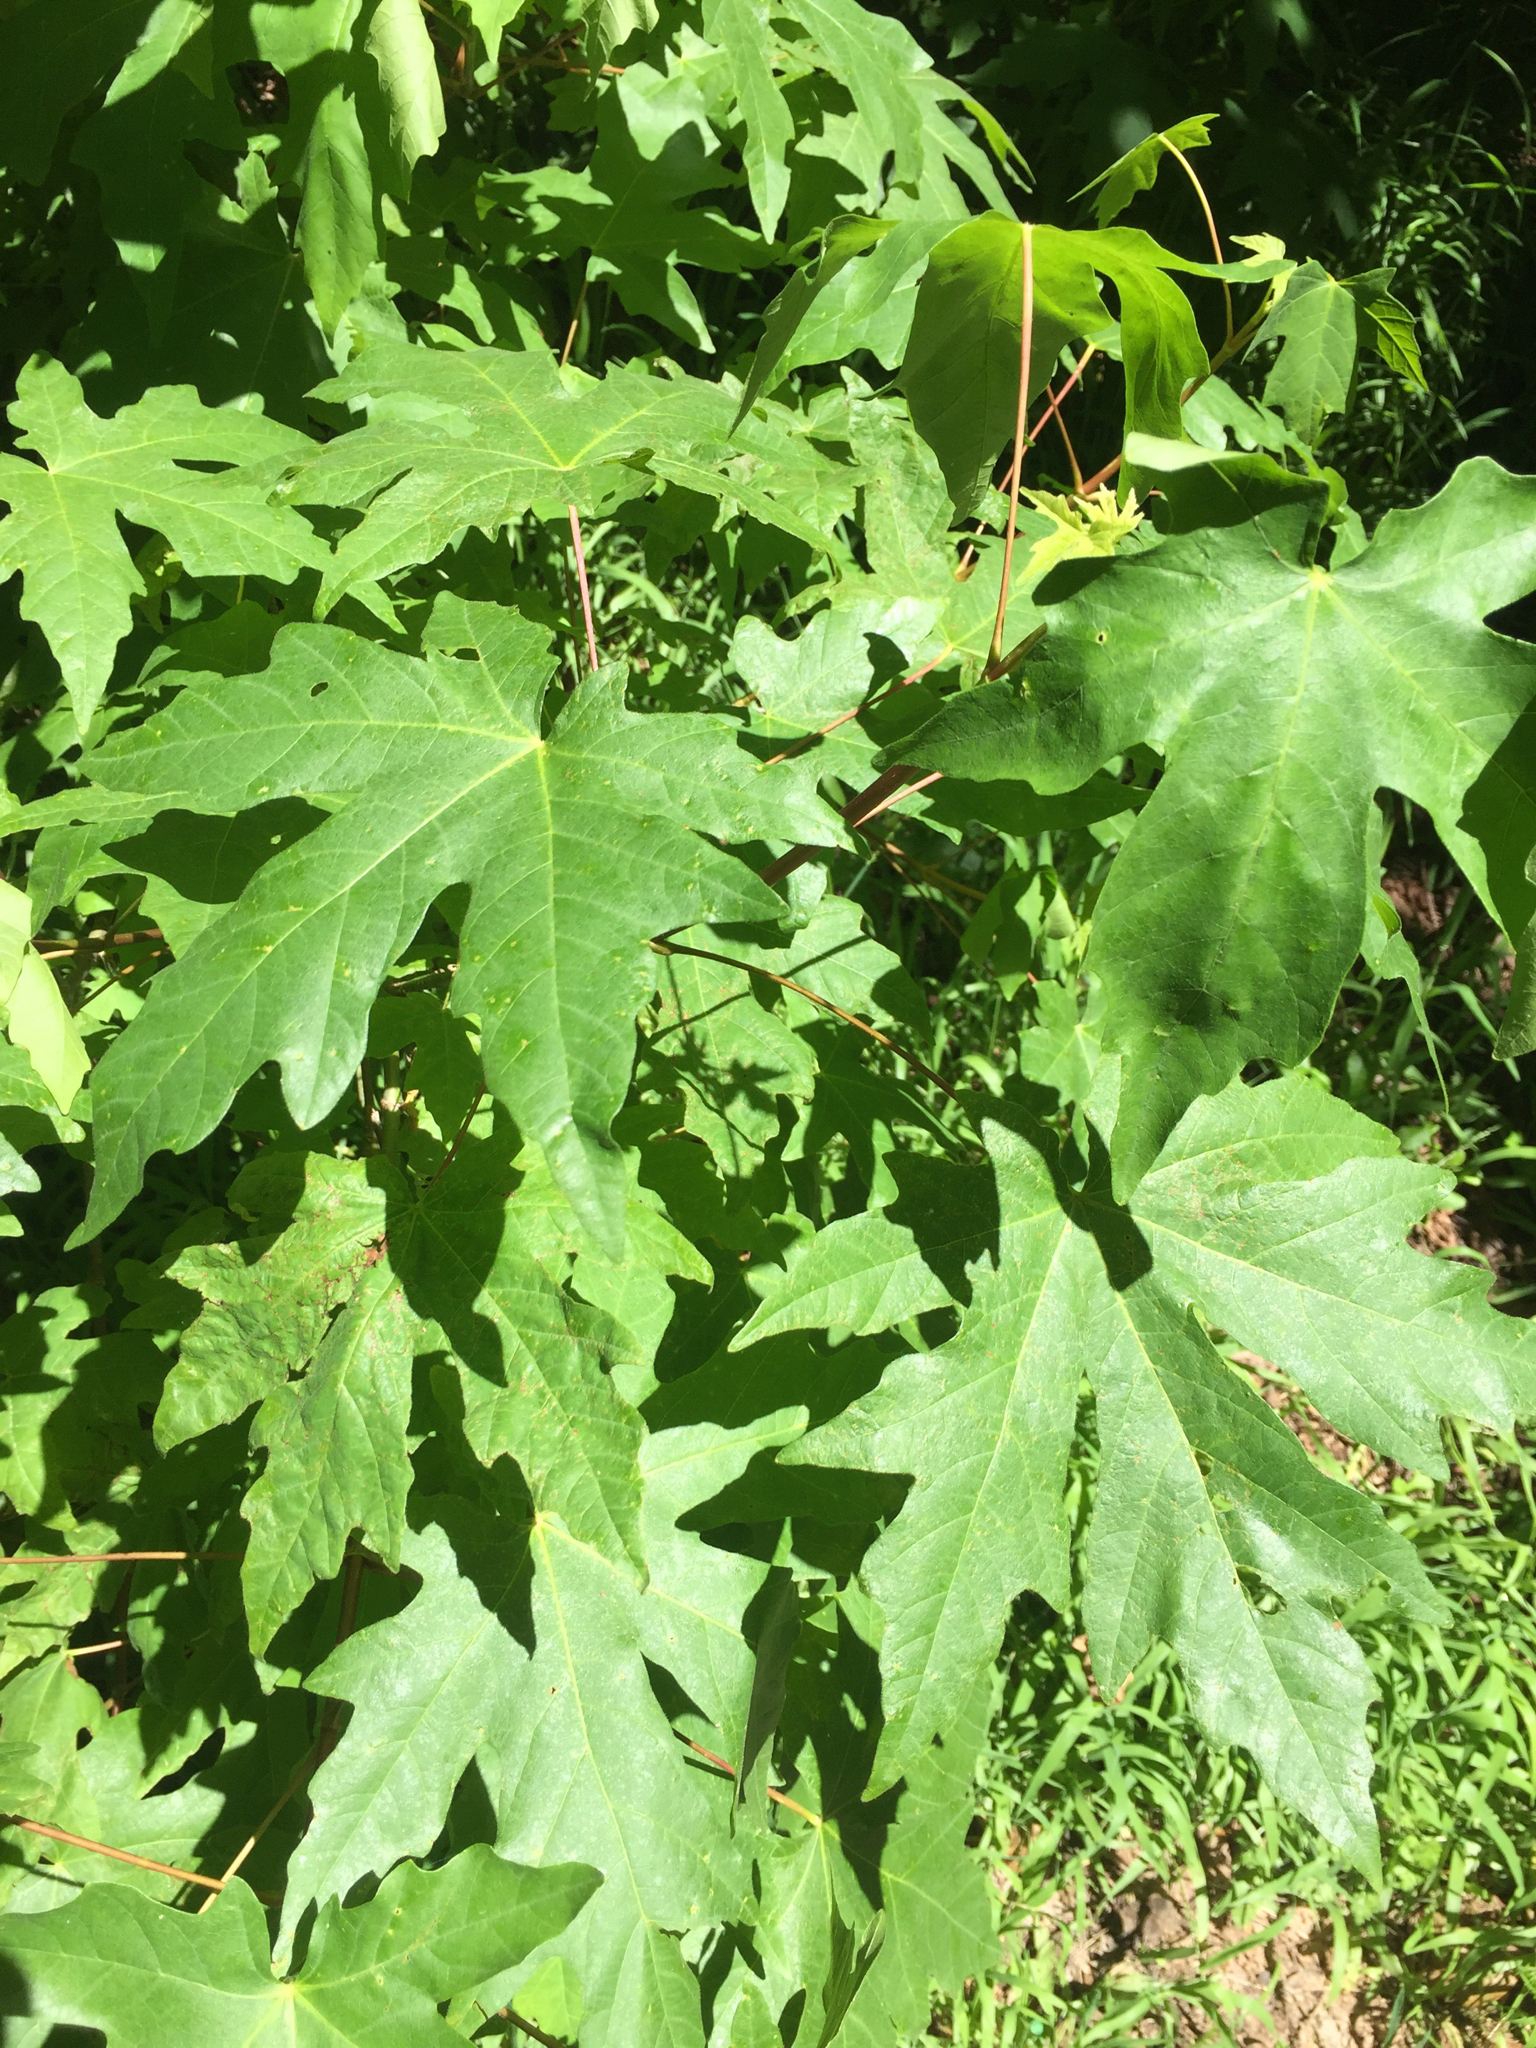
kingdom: Plantae
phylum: Tracheophyta
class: Magnoliopsida
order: Sapindales
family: Sapindaceae
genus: Acer
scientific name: Acer macrophyllum
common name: Oregon maple
